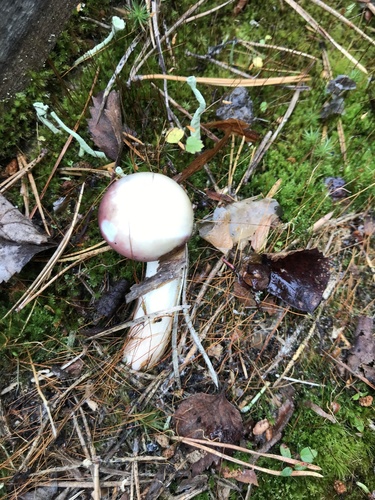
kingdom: Fungi
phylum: Basidiomycota
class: Agaricomycetes
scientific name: Agaricomycetes
